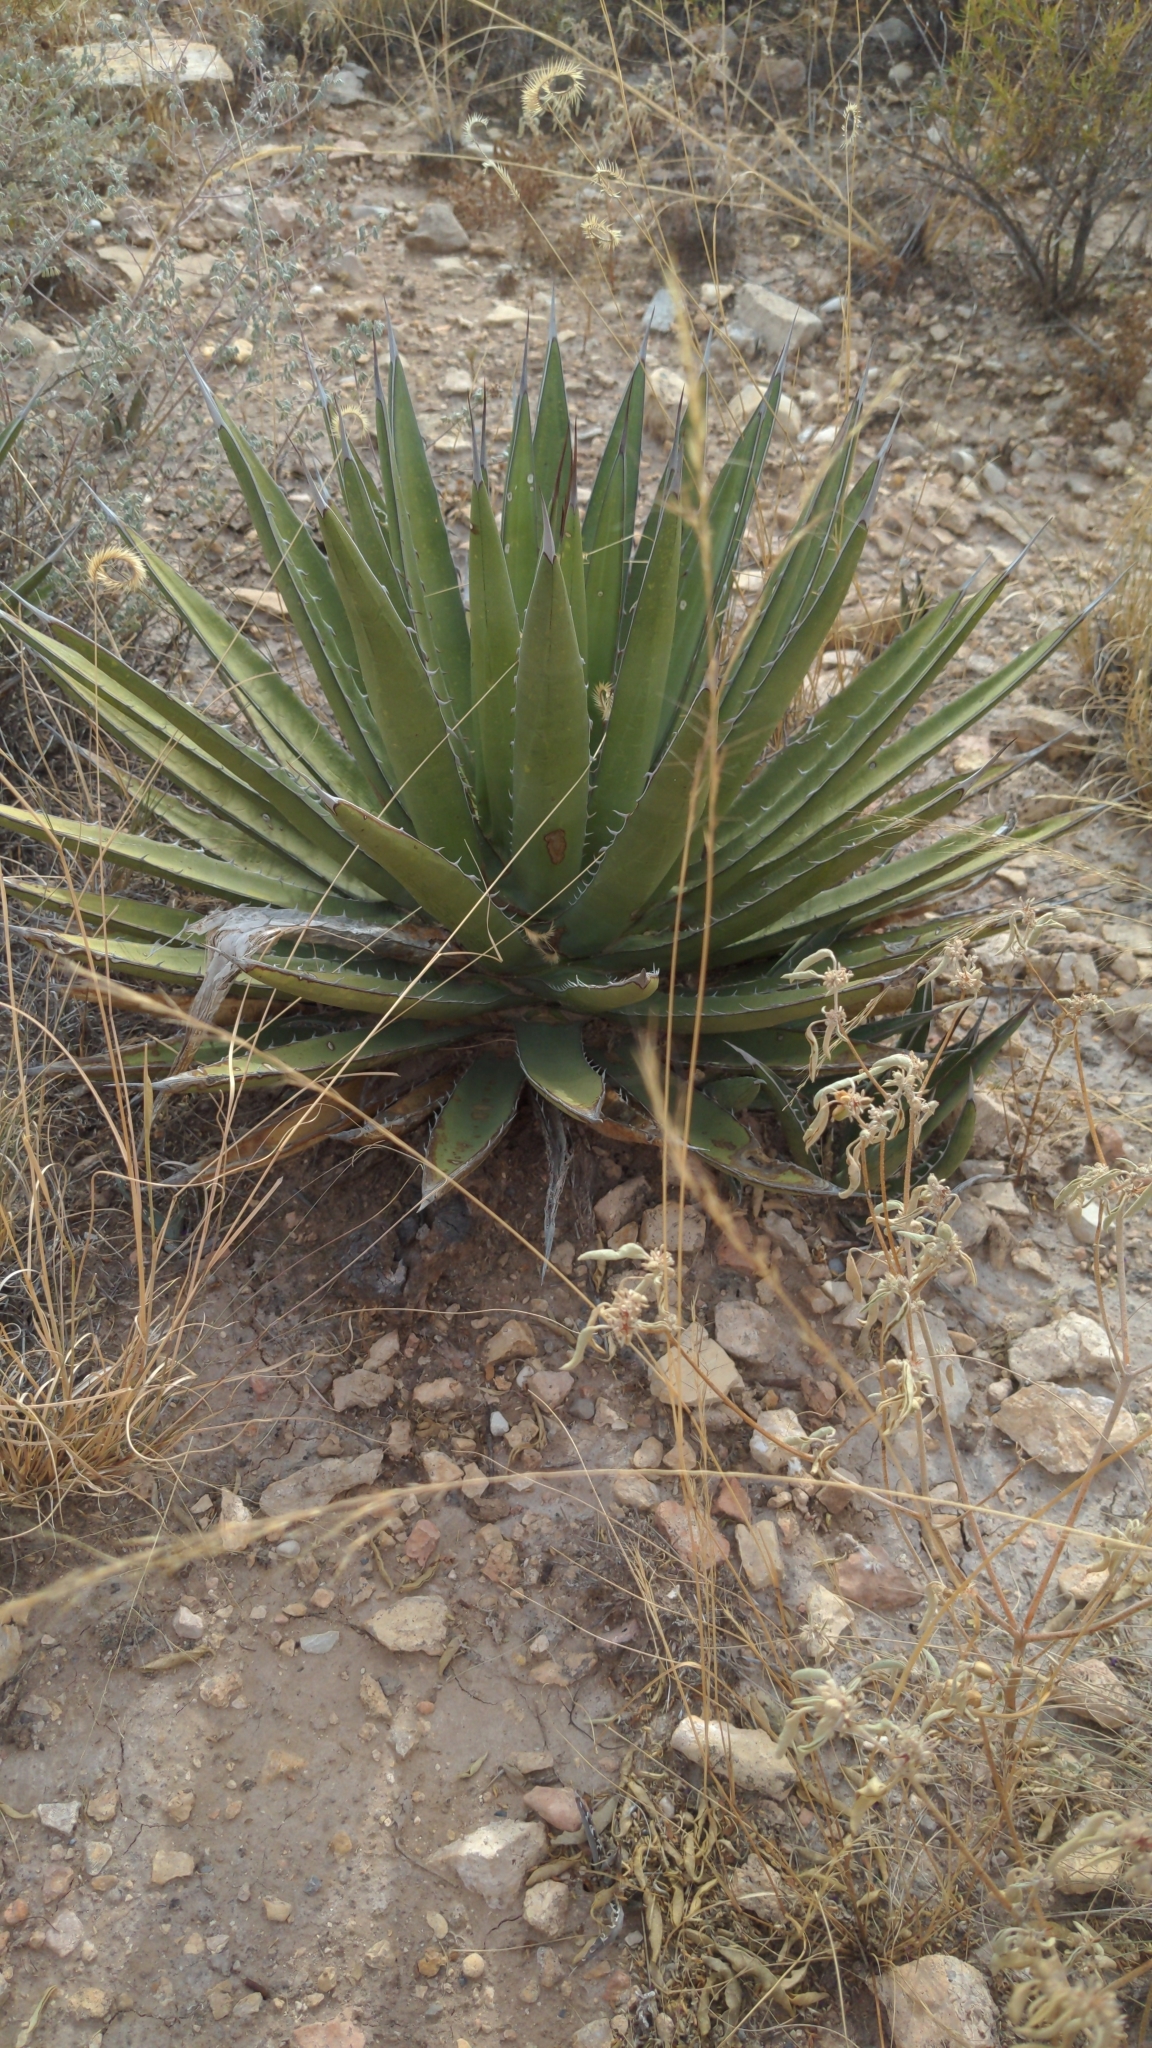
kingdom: Plantae
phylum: Tracheophyta
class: Liliopsida
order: Asparagales
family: Asparagaceae
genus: Agave
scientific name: Agave lechuguilla
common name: Lecheguilla agave
